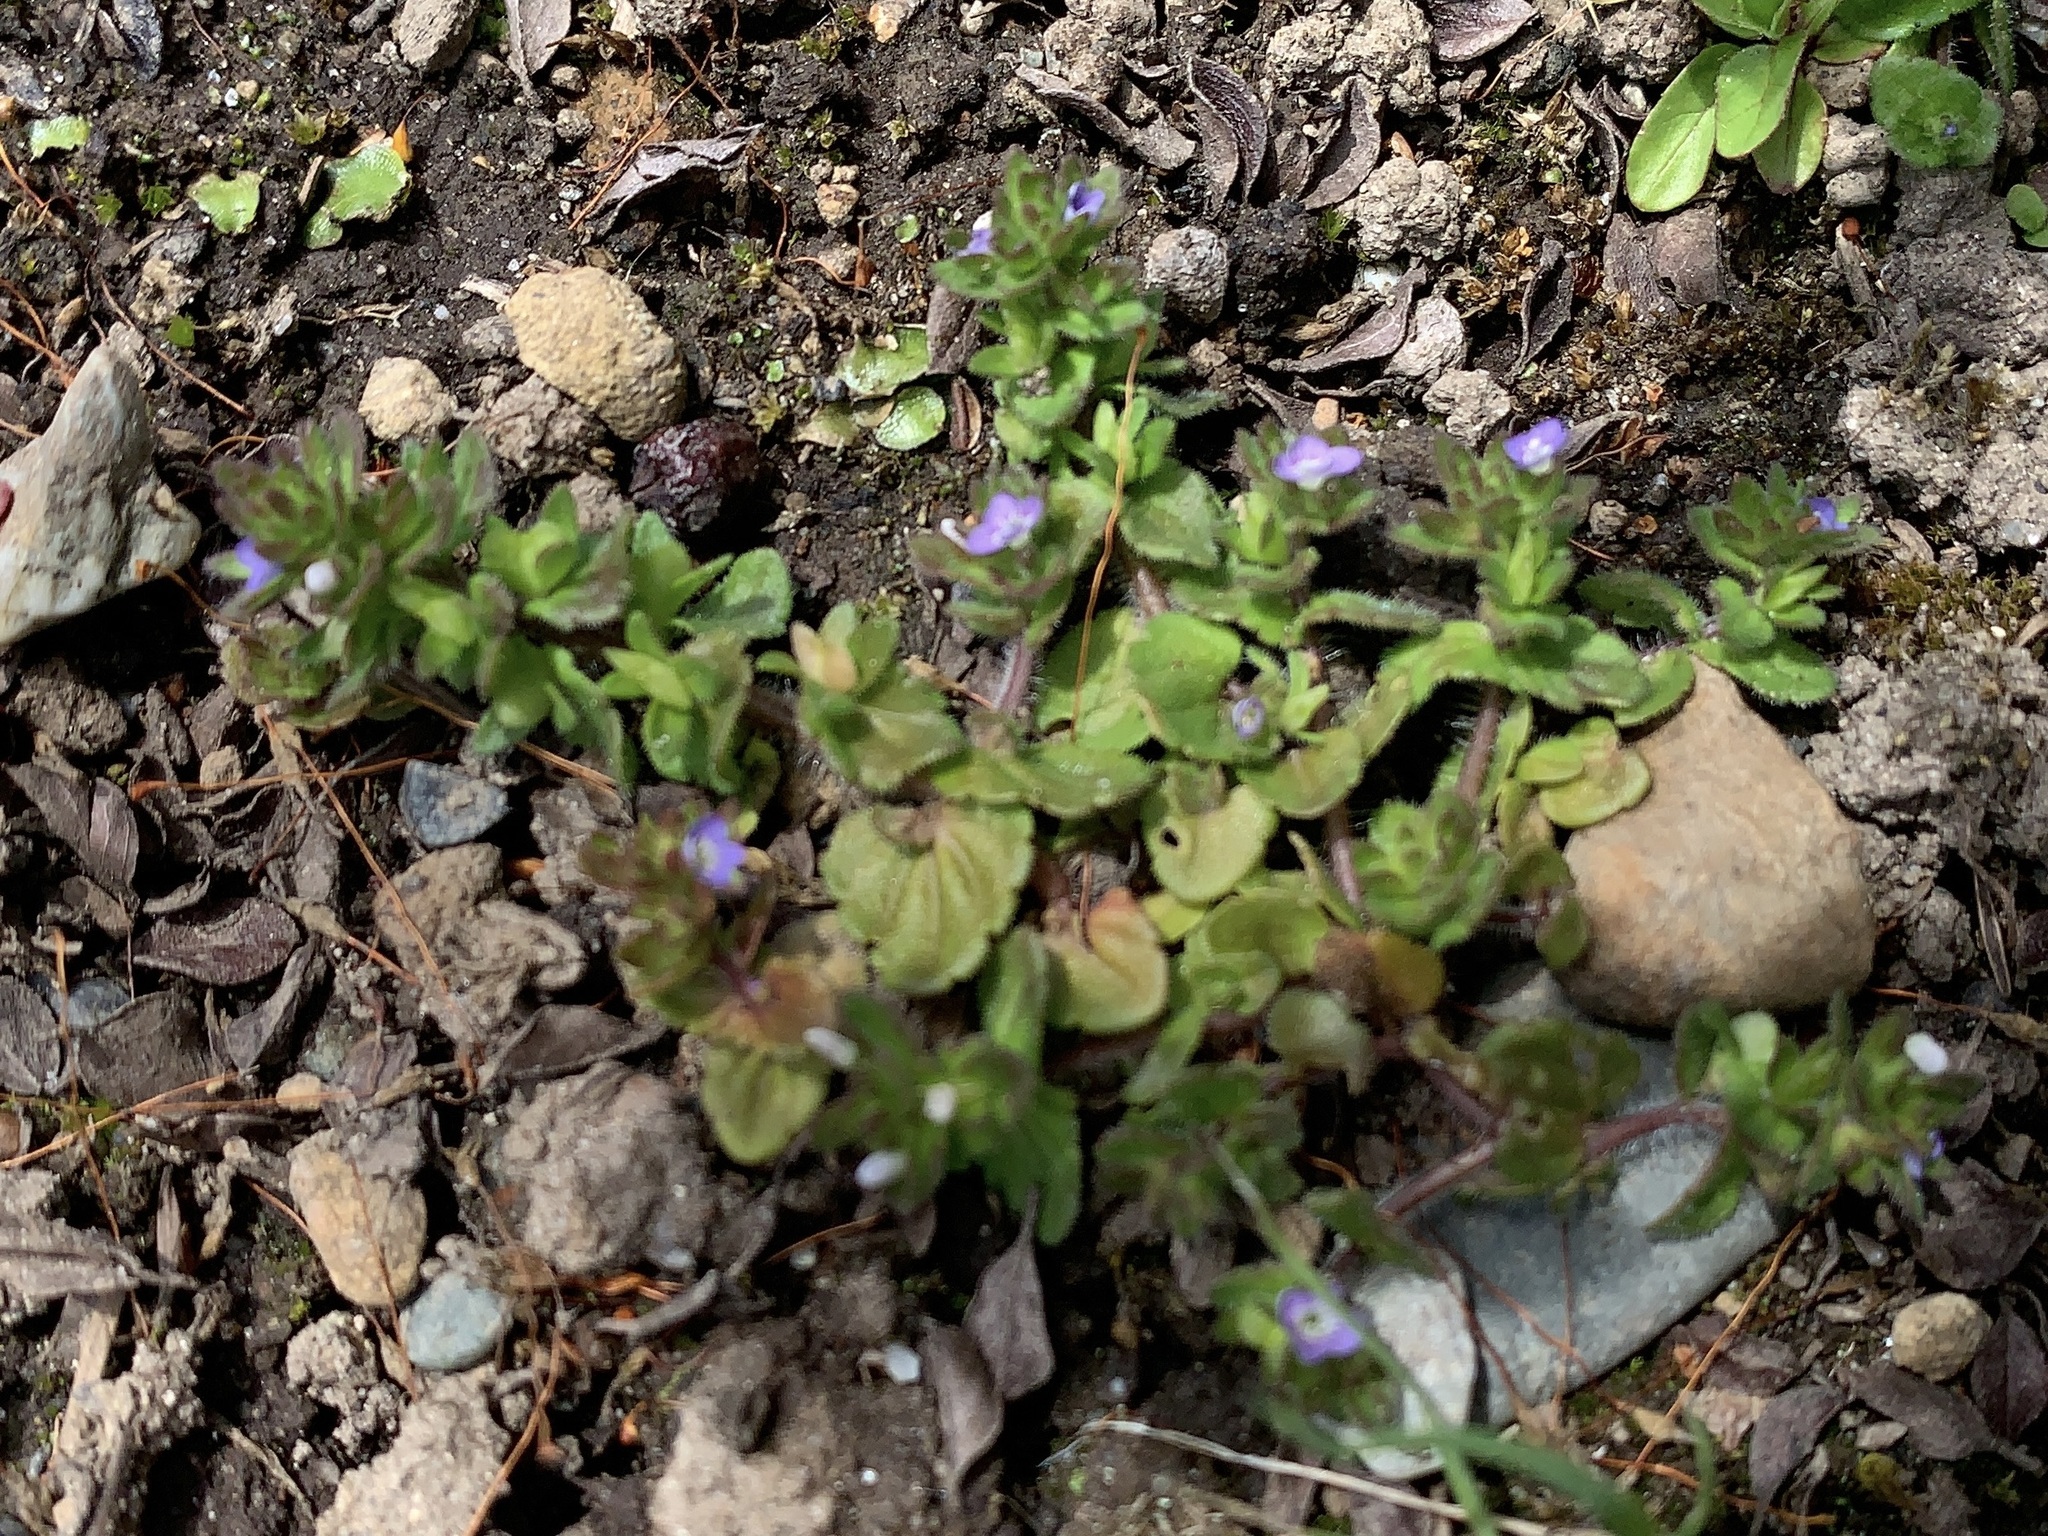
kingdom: Plantae
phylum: Tracheophyta
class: Magnoliopsida
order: Lamiales
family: Plantaginaceae
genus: Veronica
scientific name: Veronica arvensis
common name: Corn speedwell
